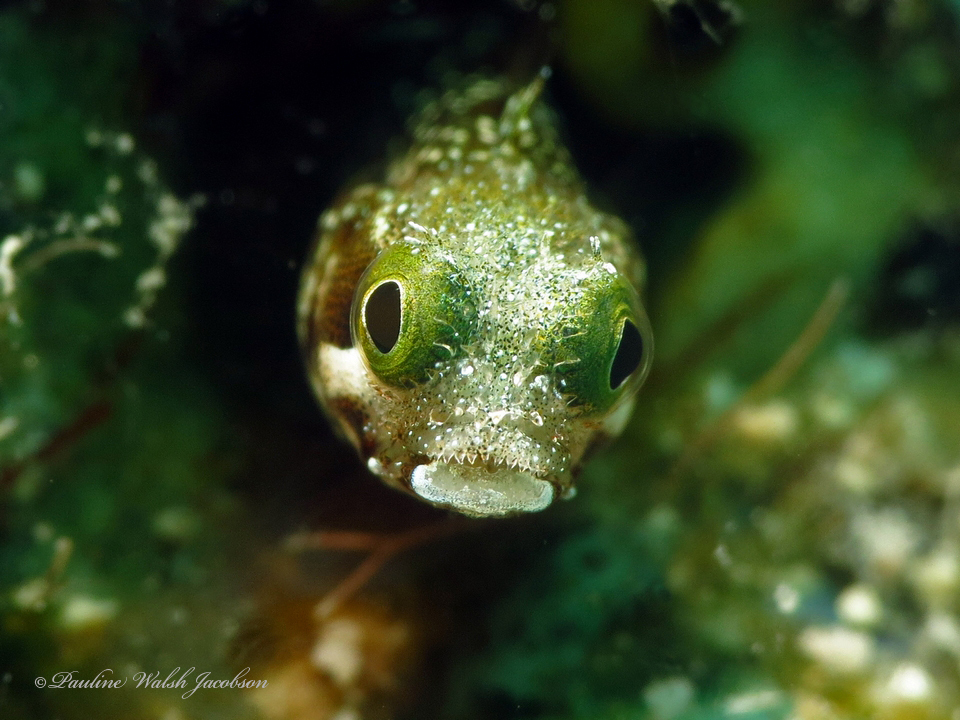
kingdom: Animalia
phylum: Chordata
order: Perciformes
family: Chaenopsidae
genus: Acanthemblemaria
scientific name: Acanthemblemaria spinosa
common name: Spinyhead blenny
